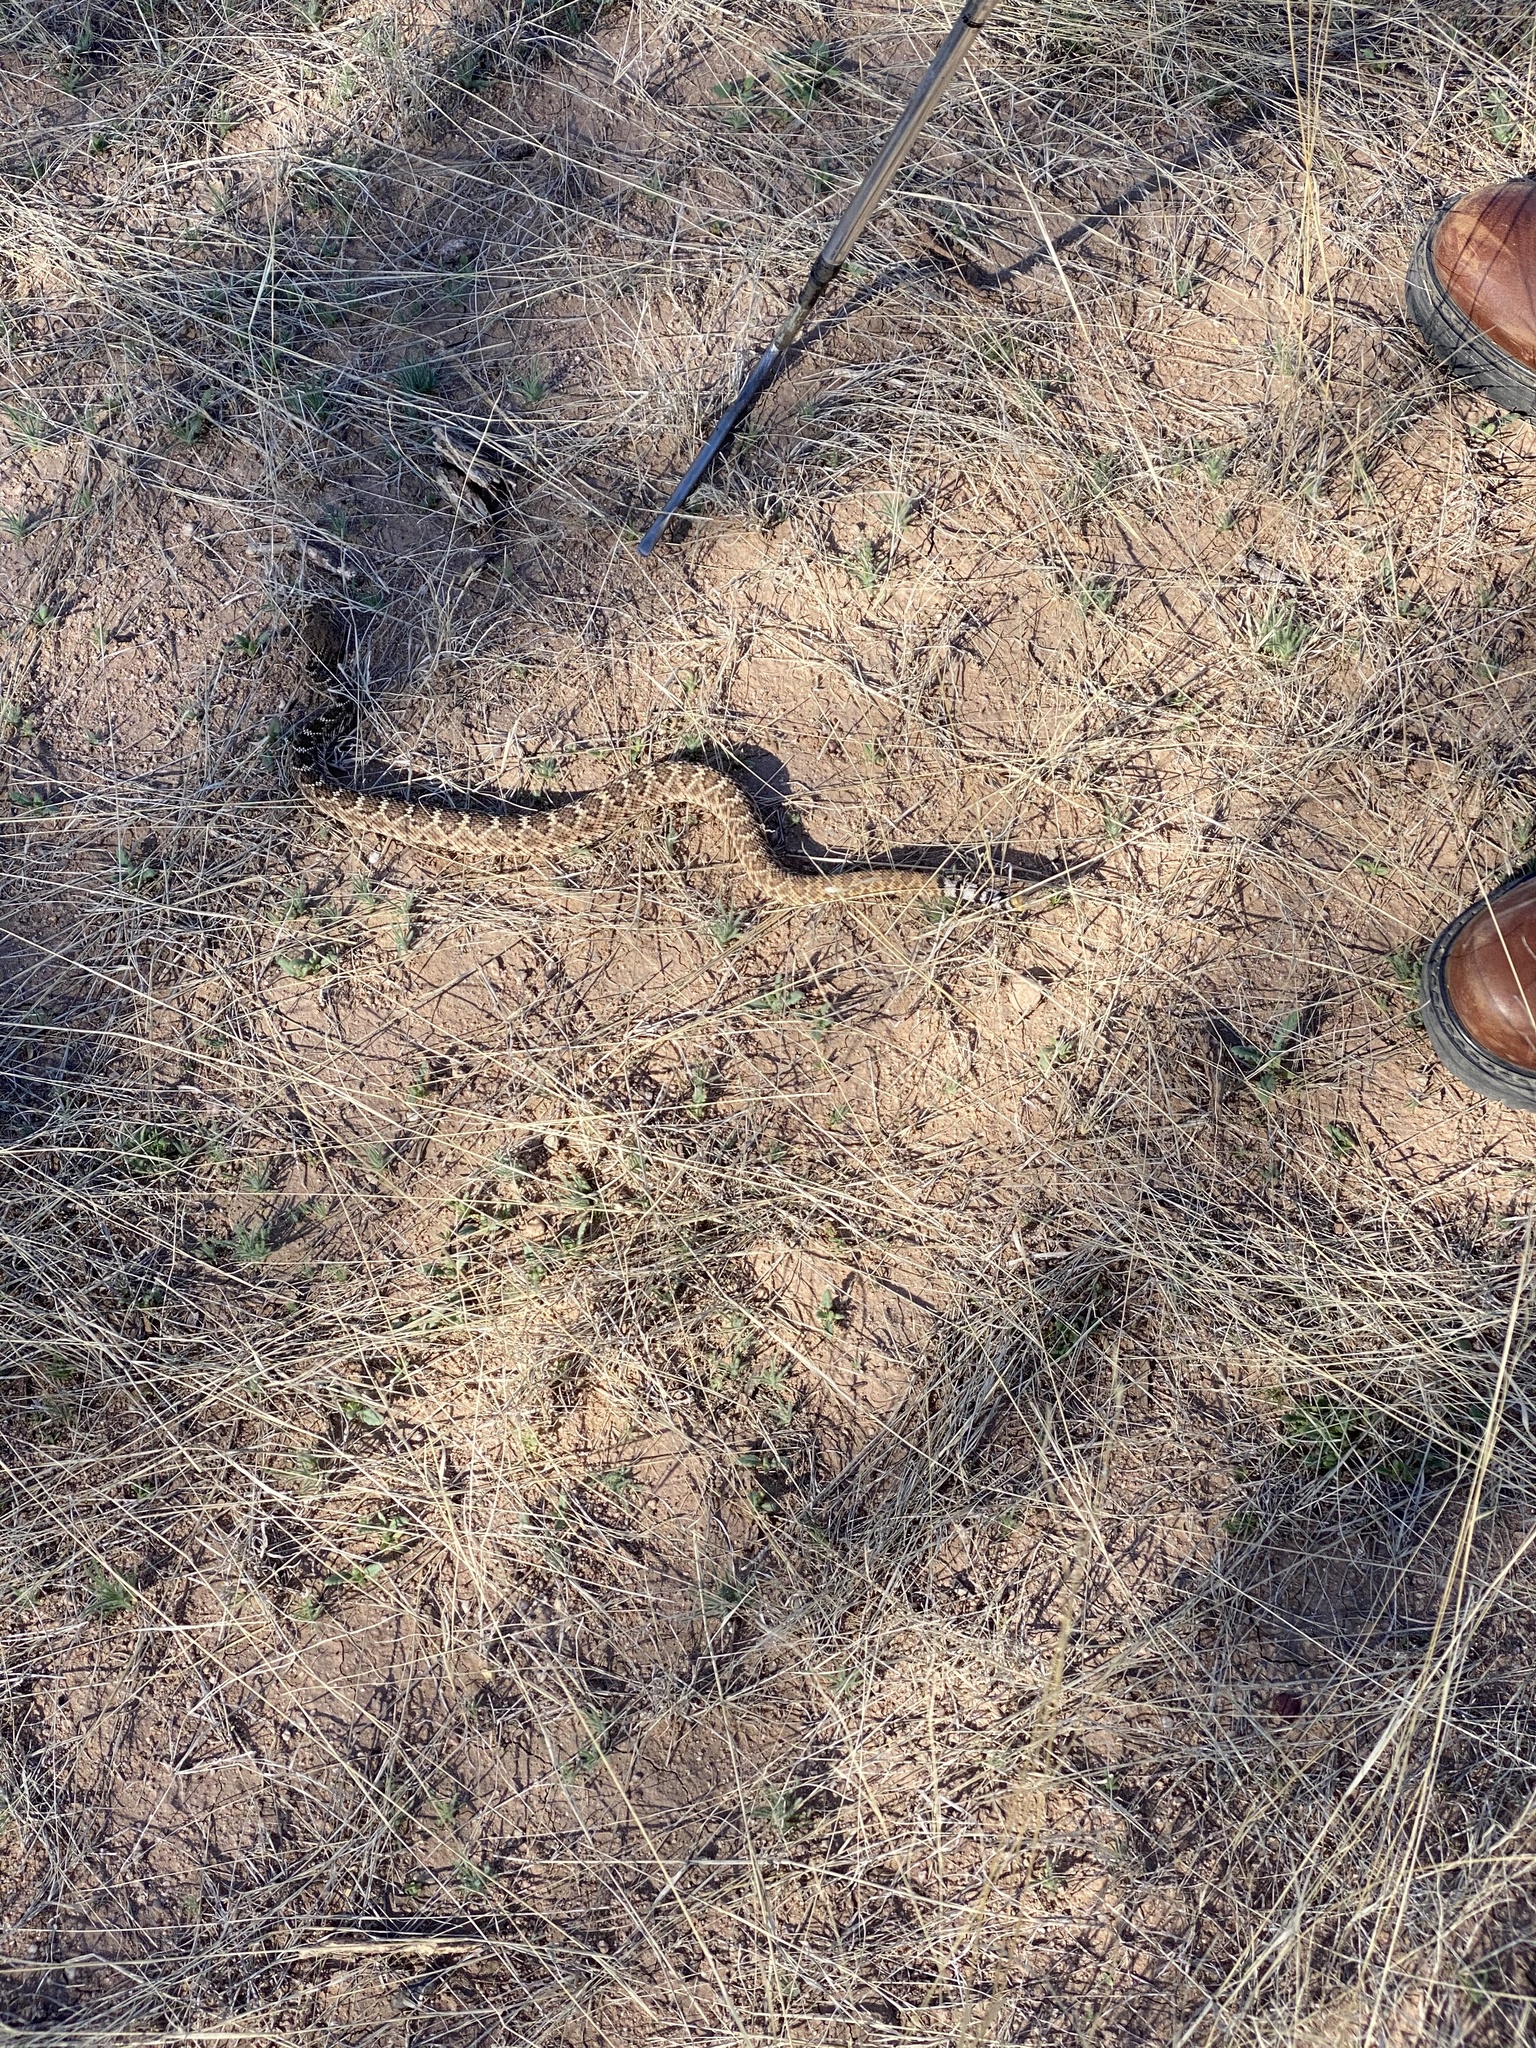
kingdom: Animalia
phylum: Chordata
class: Squamata
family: Viperidae
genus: Crotalus
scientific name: Crotalus atrox
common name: Western diamond-backed rattlesnake
